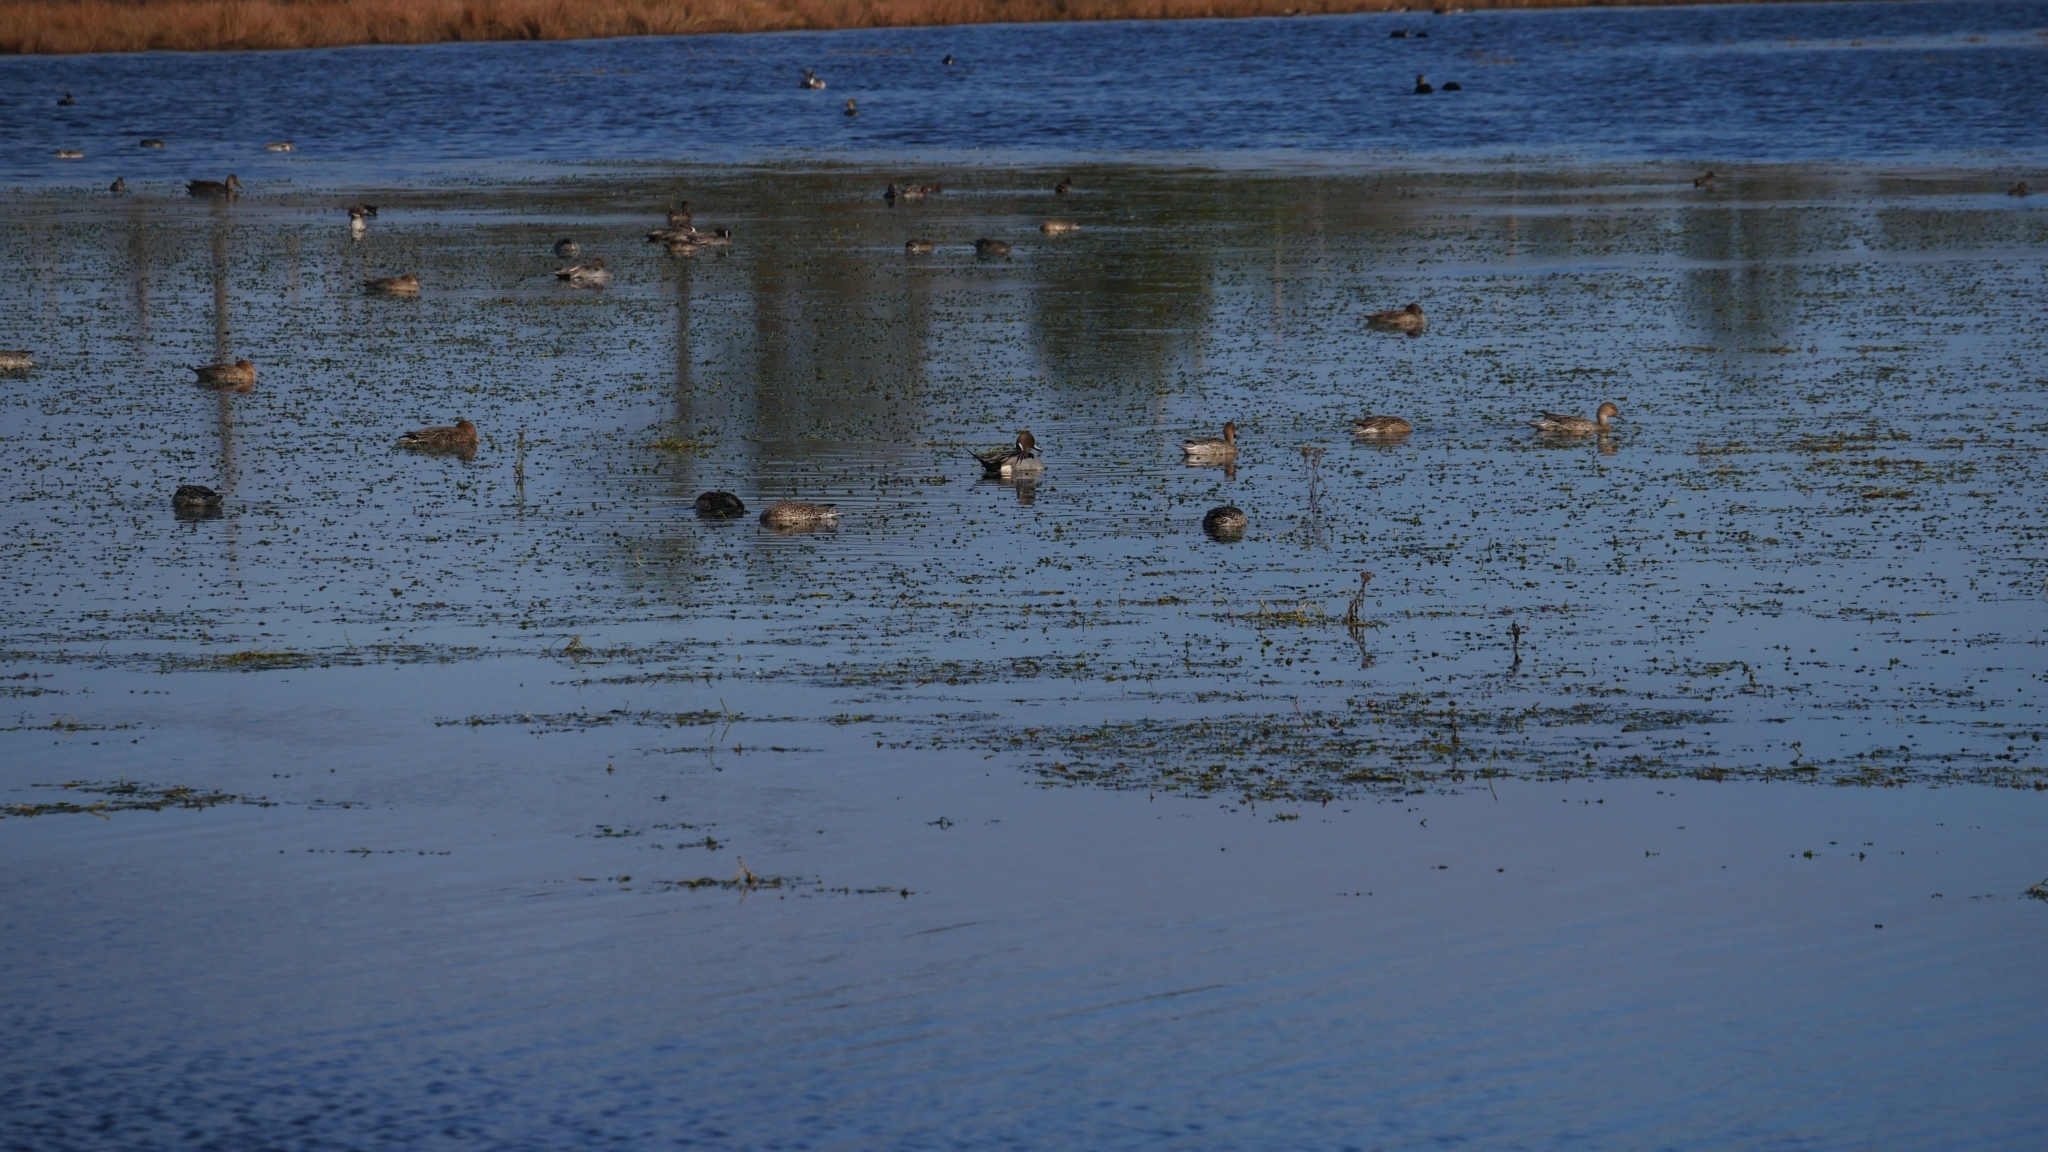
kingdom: Animalia
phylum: Chordata
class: Aves
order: Anseriformes
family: Anatidae
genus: Anas
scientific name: Anas acuta
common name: Northern pintail
